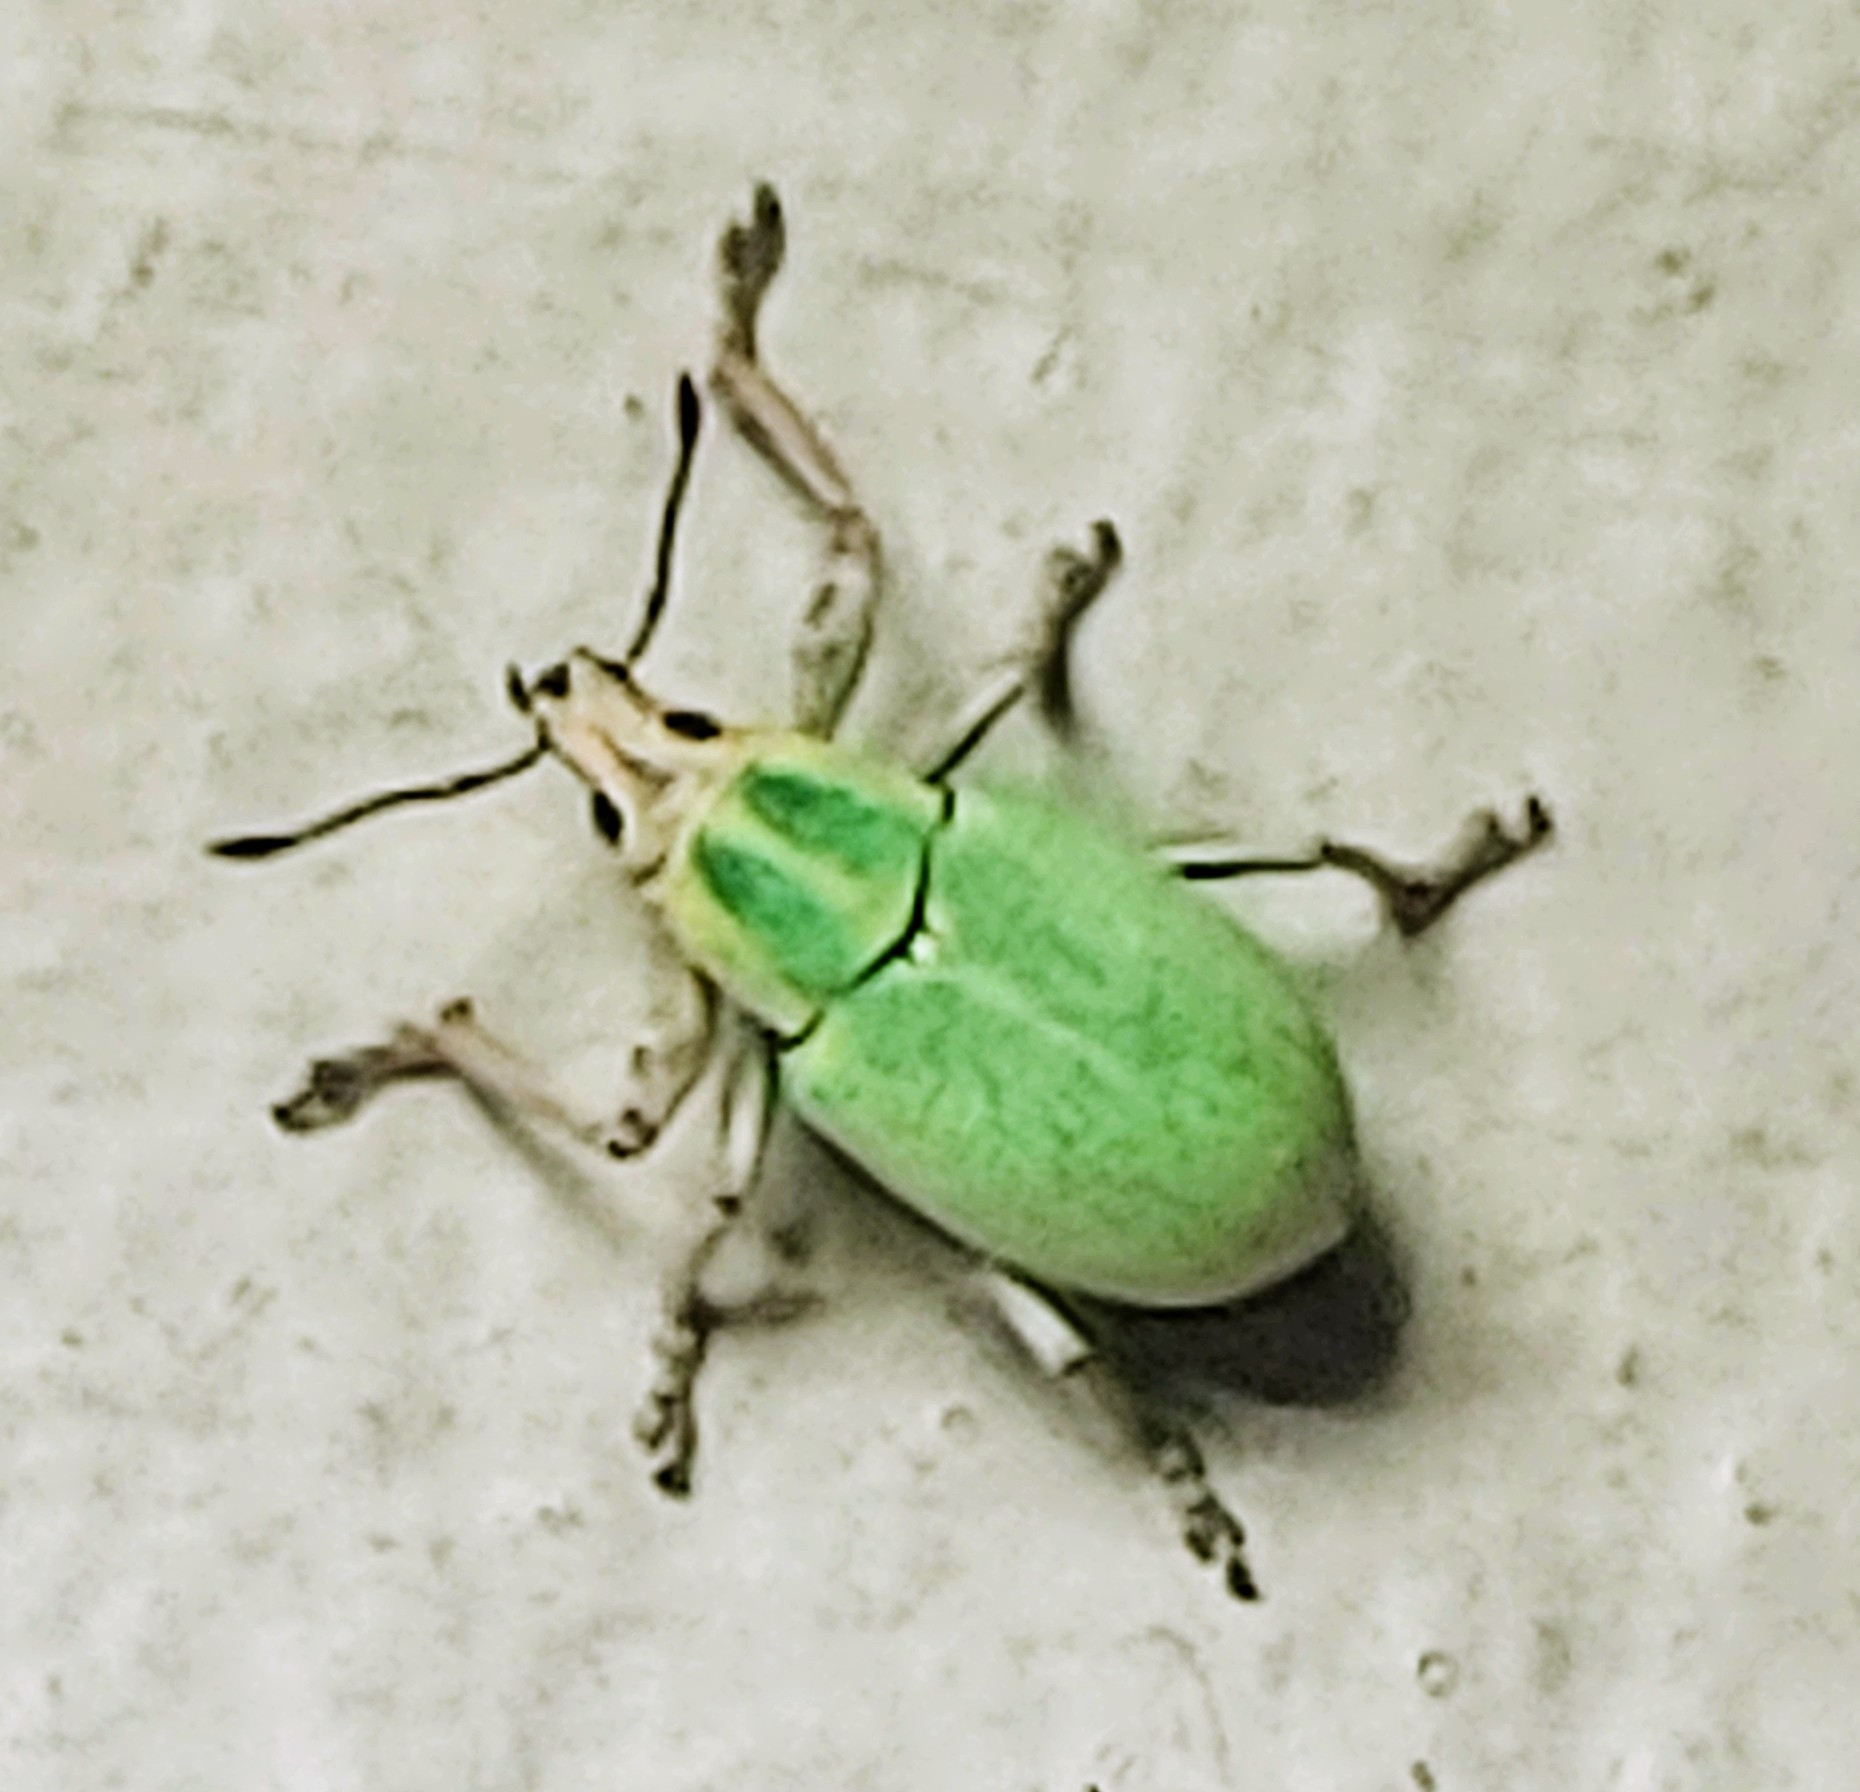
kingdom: Animalia
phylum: Arthropoda
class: Insecta
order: Coleoptera
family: Curculionidae
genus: Pachnaeus
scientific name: Pachnaeus litus
